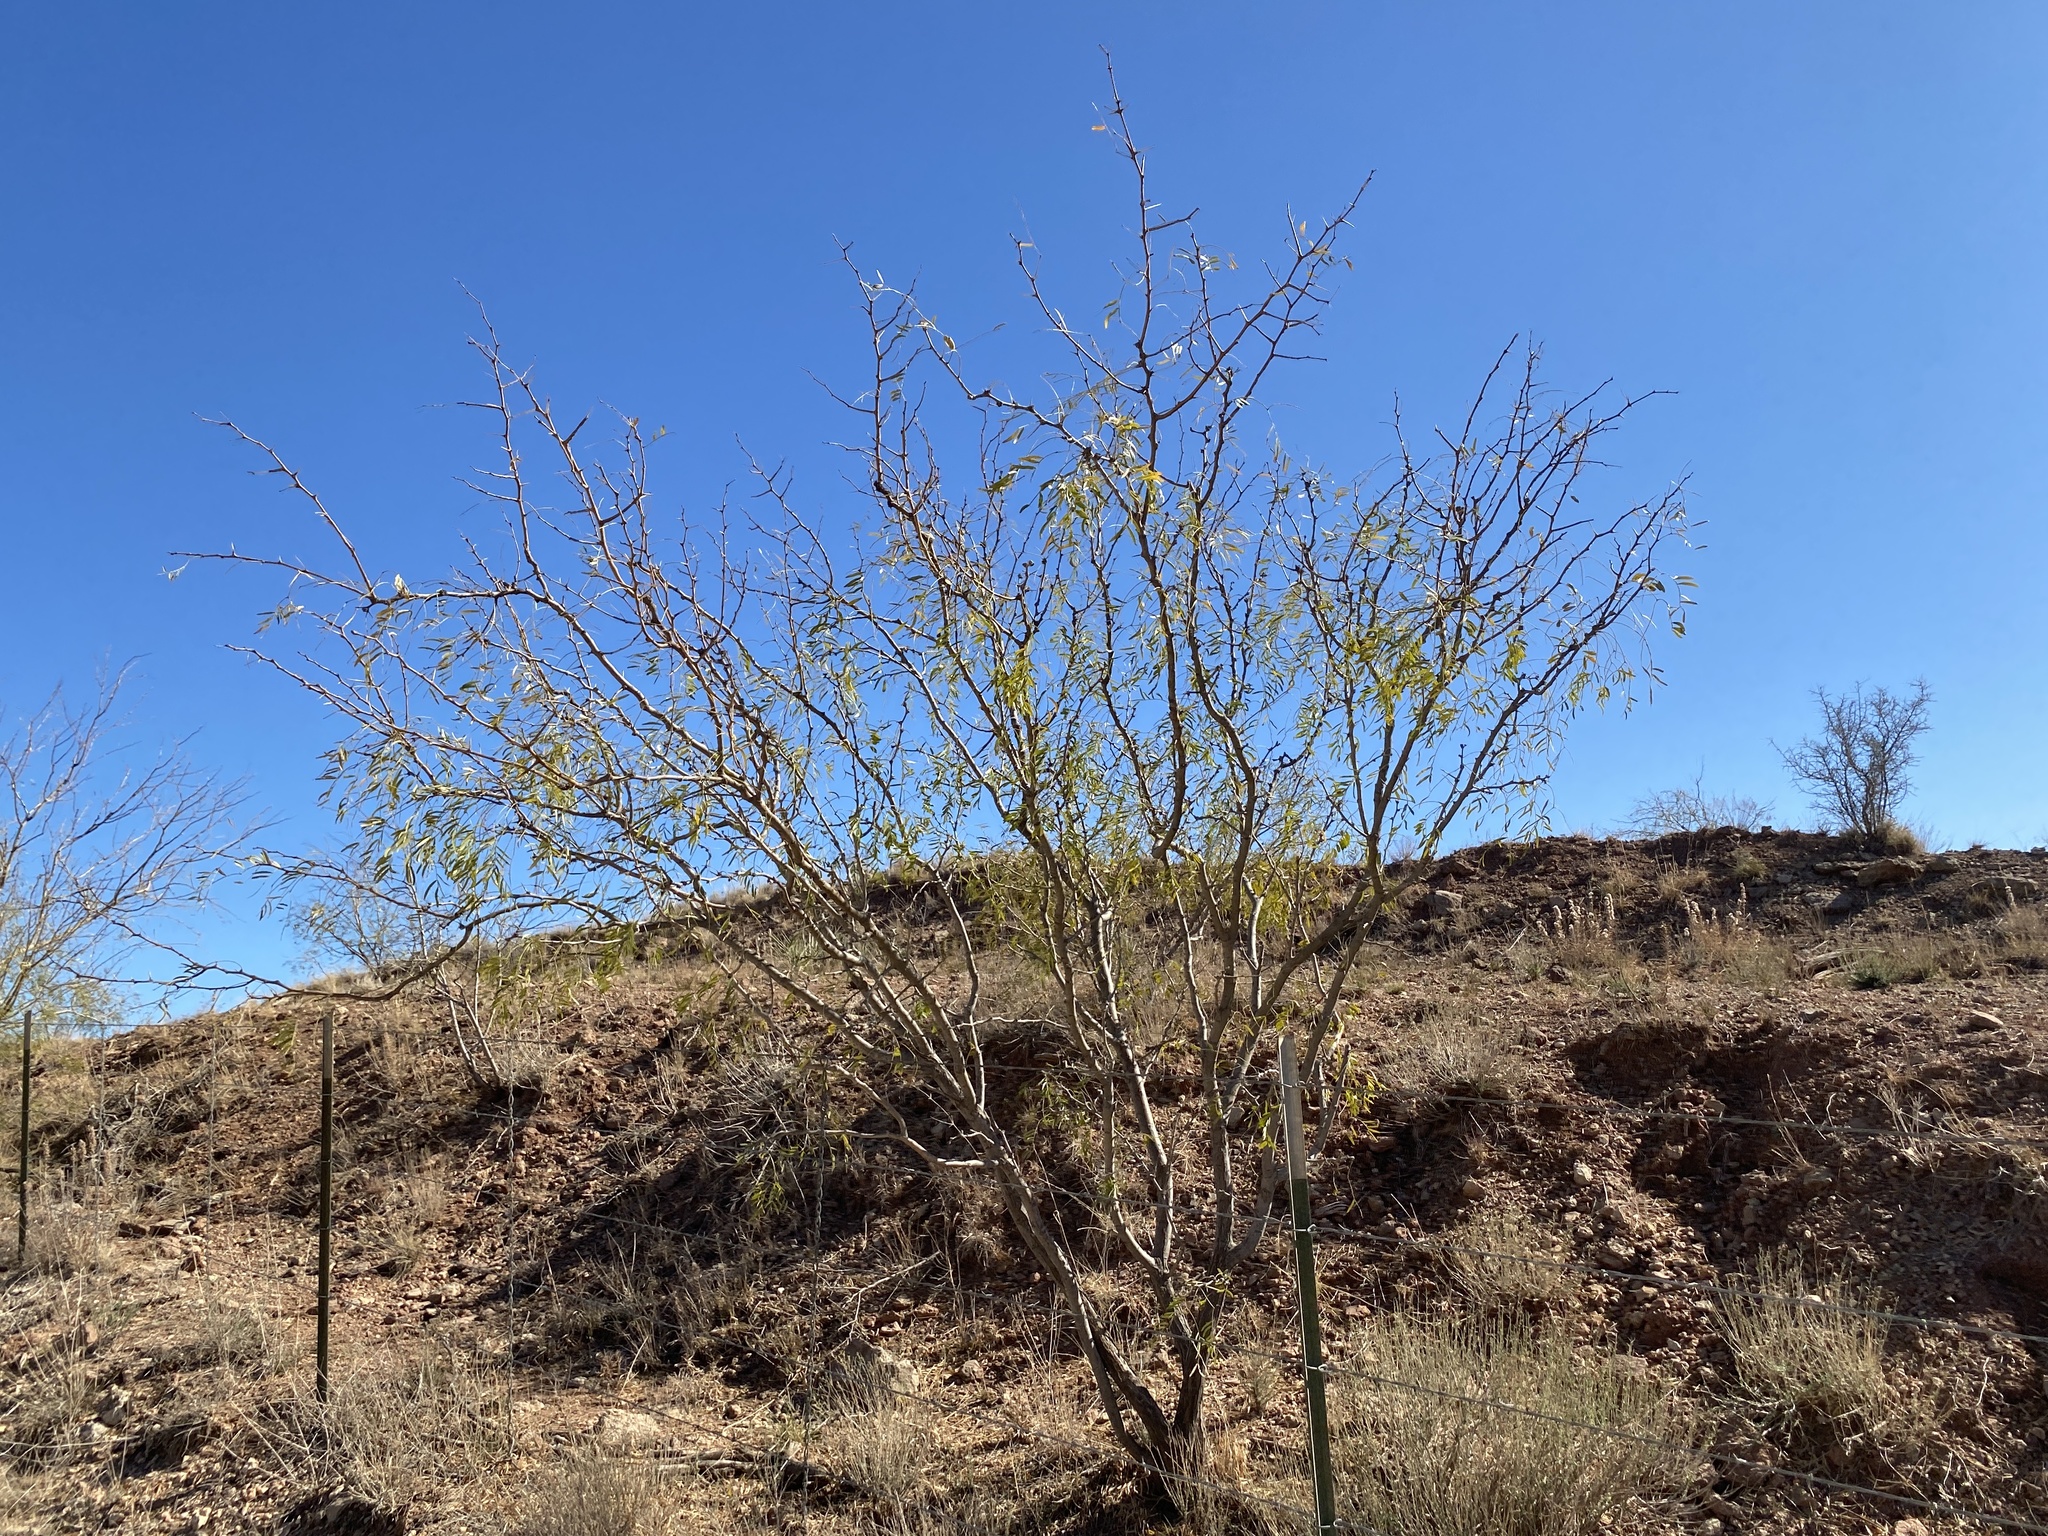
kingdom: Plantae
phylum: Tracheophyta
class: Magnoliopsida
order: Fabales
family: Fabaceae
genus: Prosopis
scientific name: Prosopis glandulosa
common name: Honey mesquite
